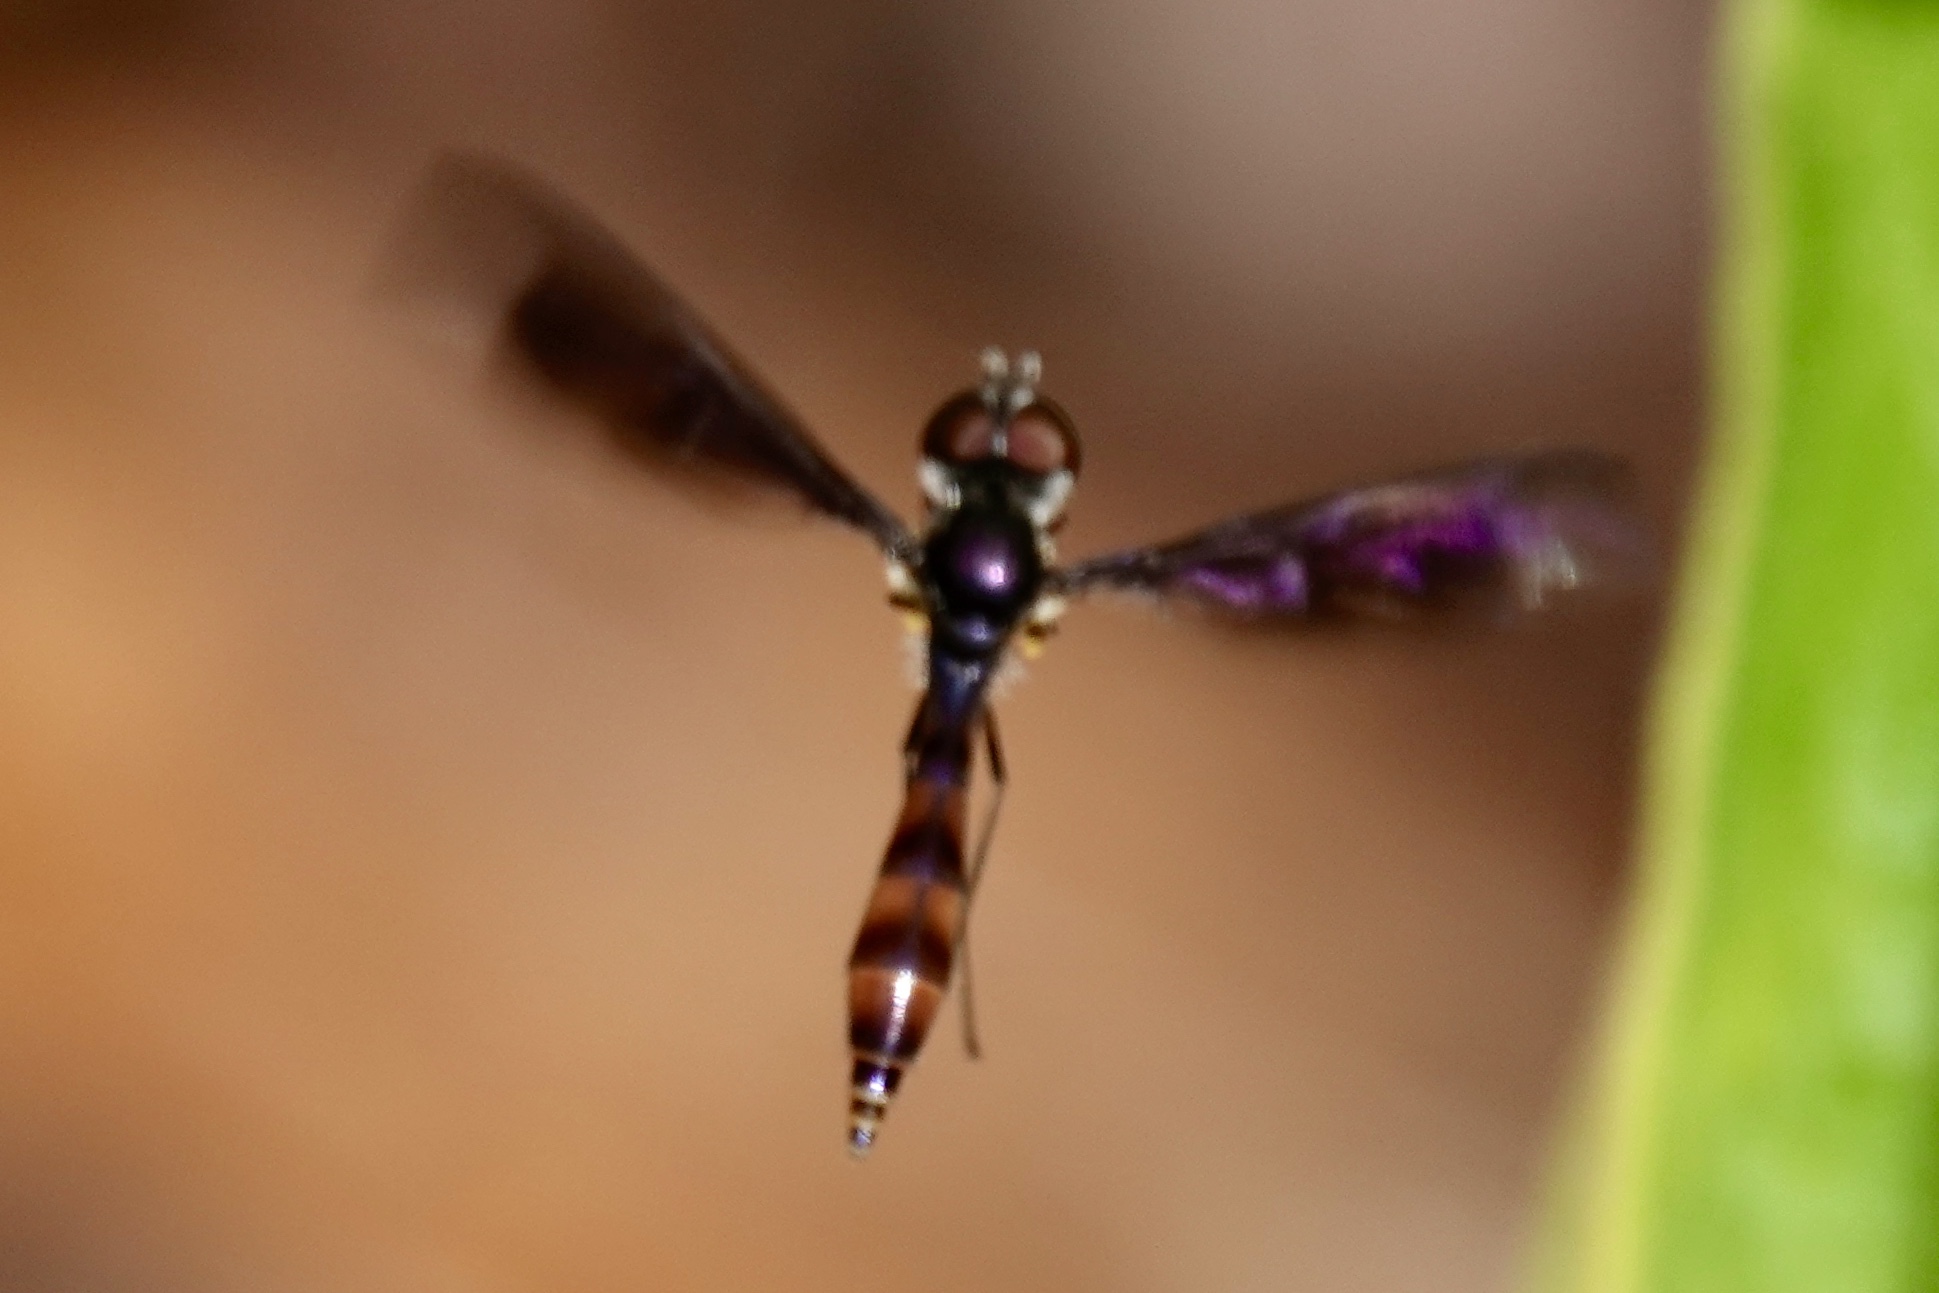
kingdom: Animalia
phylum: Arthropoda
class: Insecta
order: Diptera
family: Syrphidae
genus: Ocyptamus
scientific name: Ocyptamus fuscipennis
